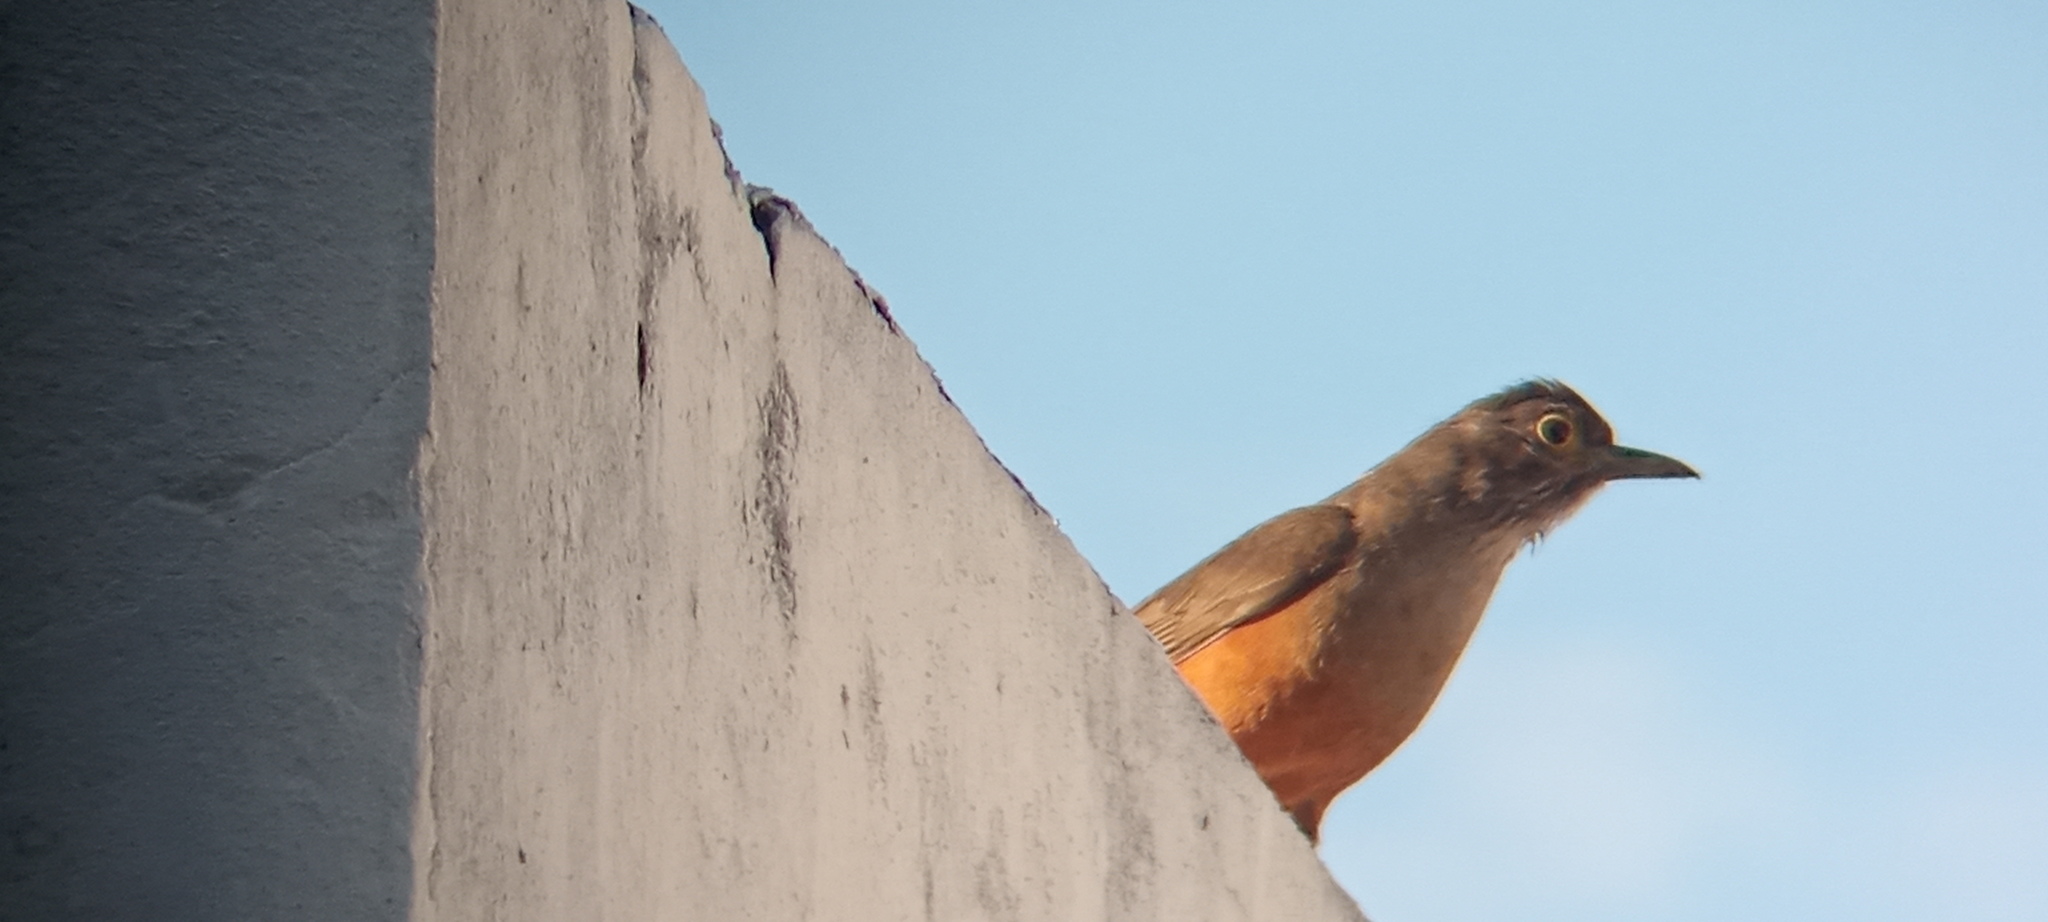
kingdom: Animalia
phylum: Chordata
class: Aves
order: Passeriformes
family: Turdidae
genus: Turdus
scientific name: Turdus rufiventris
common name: Rufous-bellied thrush
